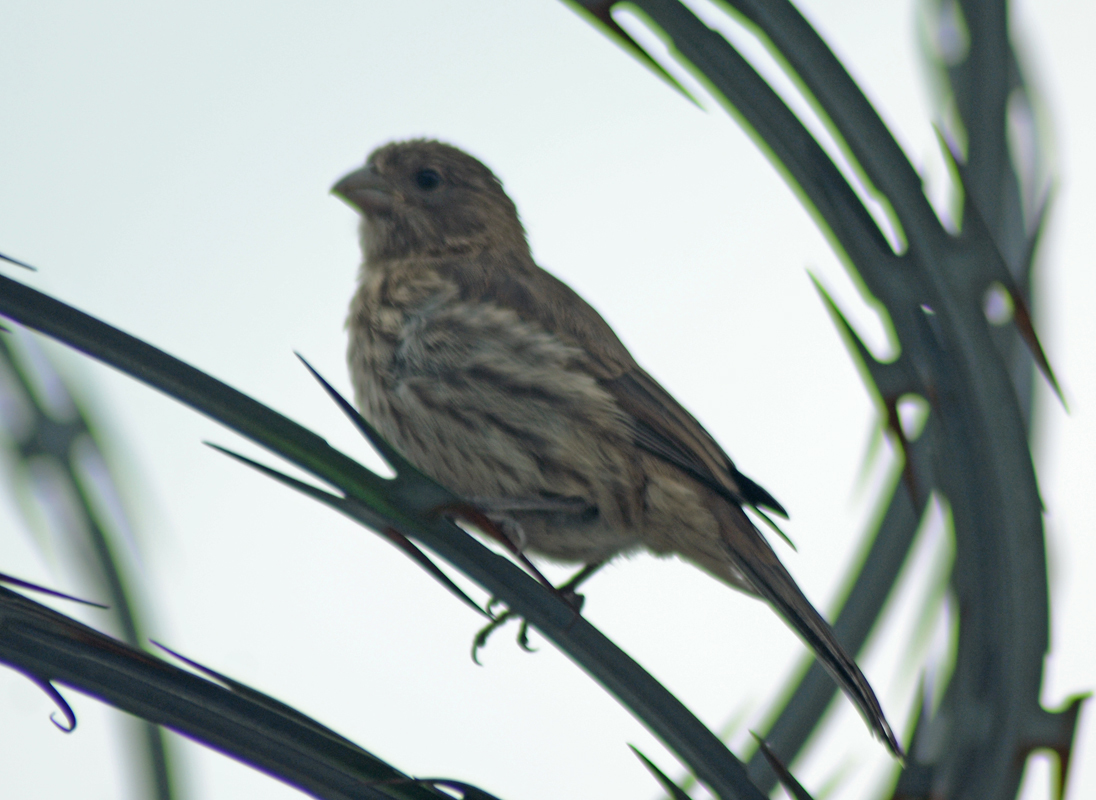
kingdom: Animalia
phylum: Chordata
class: Aves
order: Passeriformes
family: Fringillidae
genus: Haemorhous
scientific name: Haemorhous mexicanus
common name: House finch
